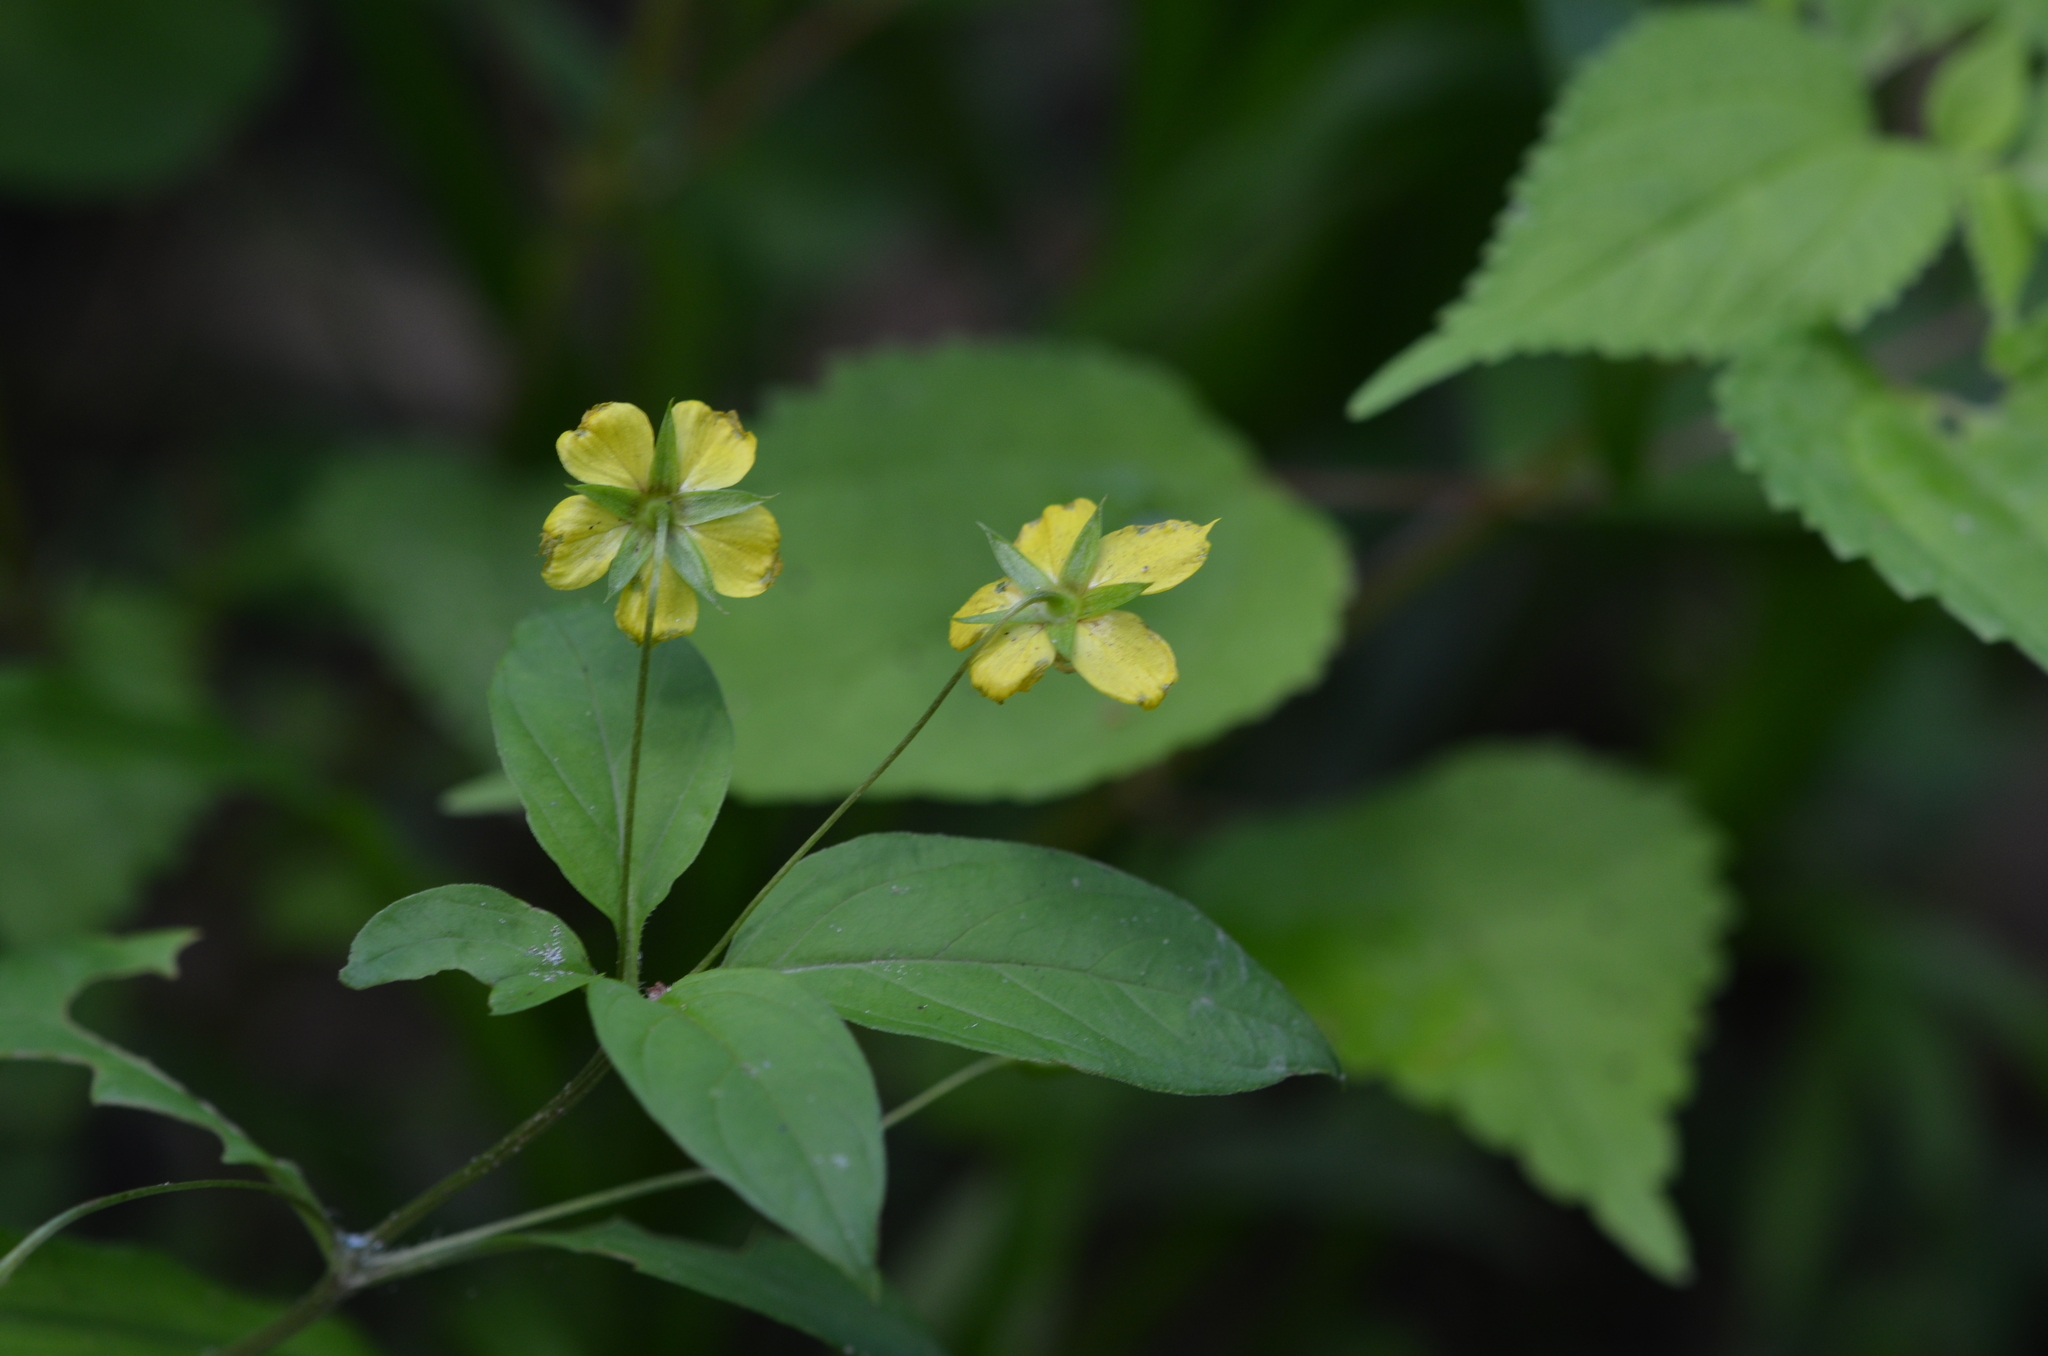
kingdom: Plantae
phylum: Tracheophyta
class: Magnoliopsida
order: Ericales
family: Primulaceae
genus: Lysimachia
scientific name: Lysimachia ciliata
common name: Fringed loosestrife
